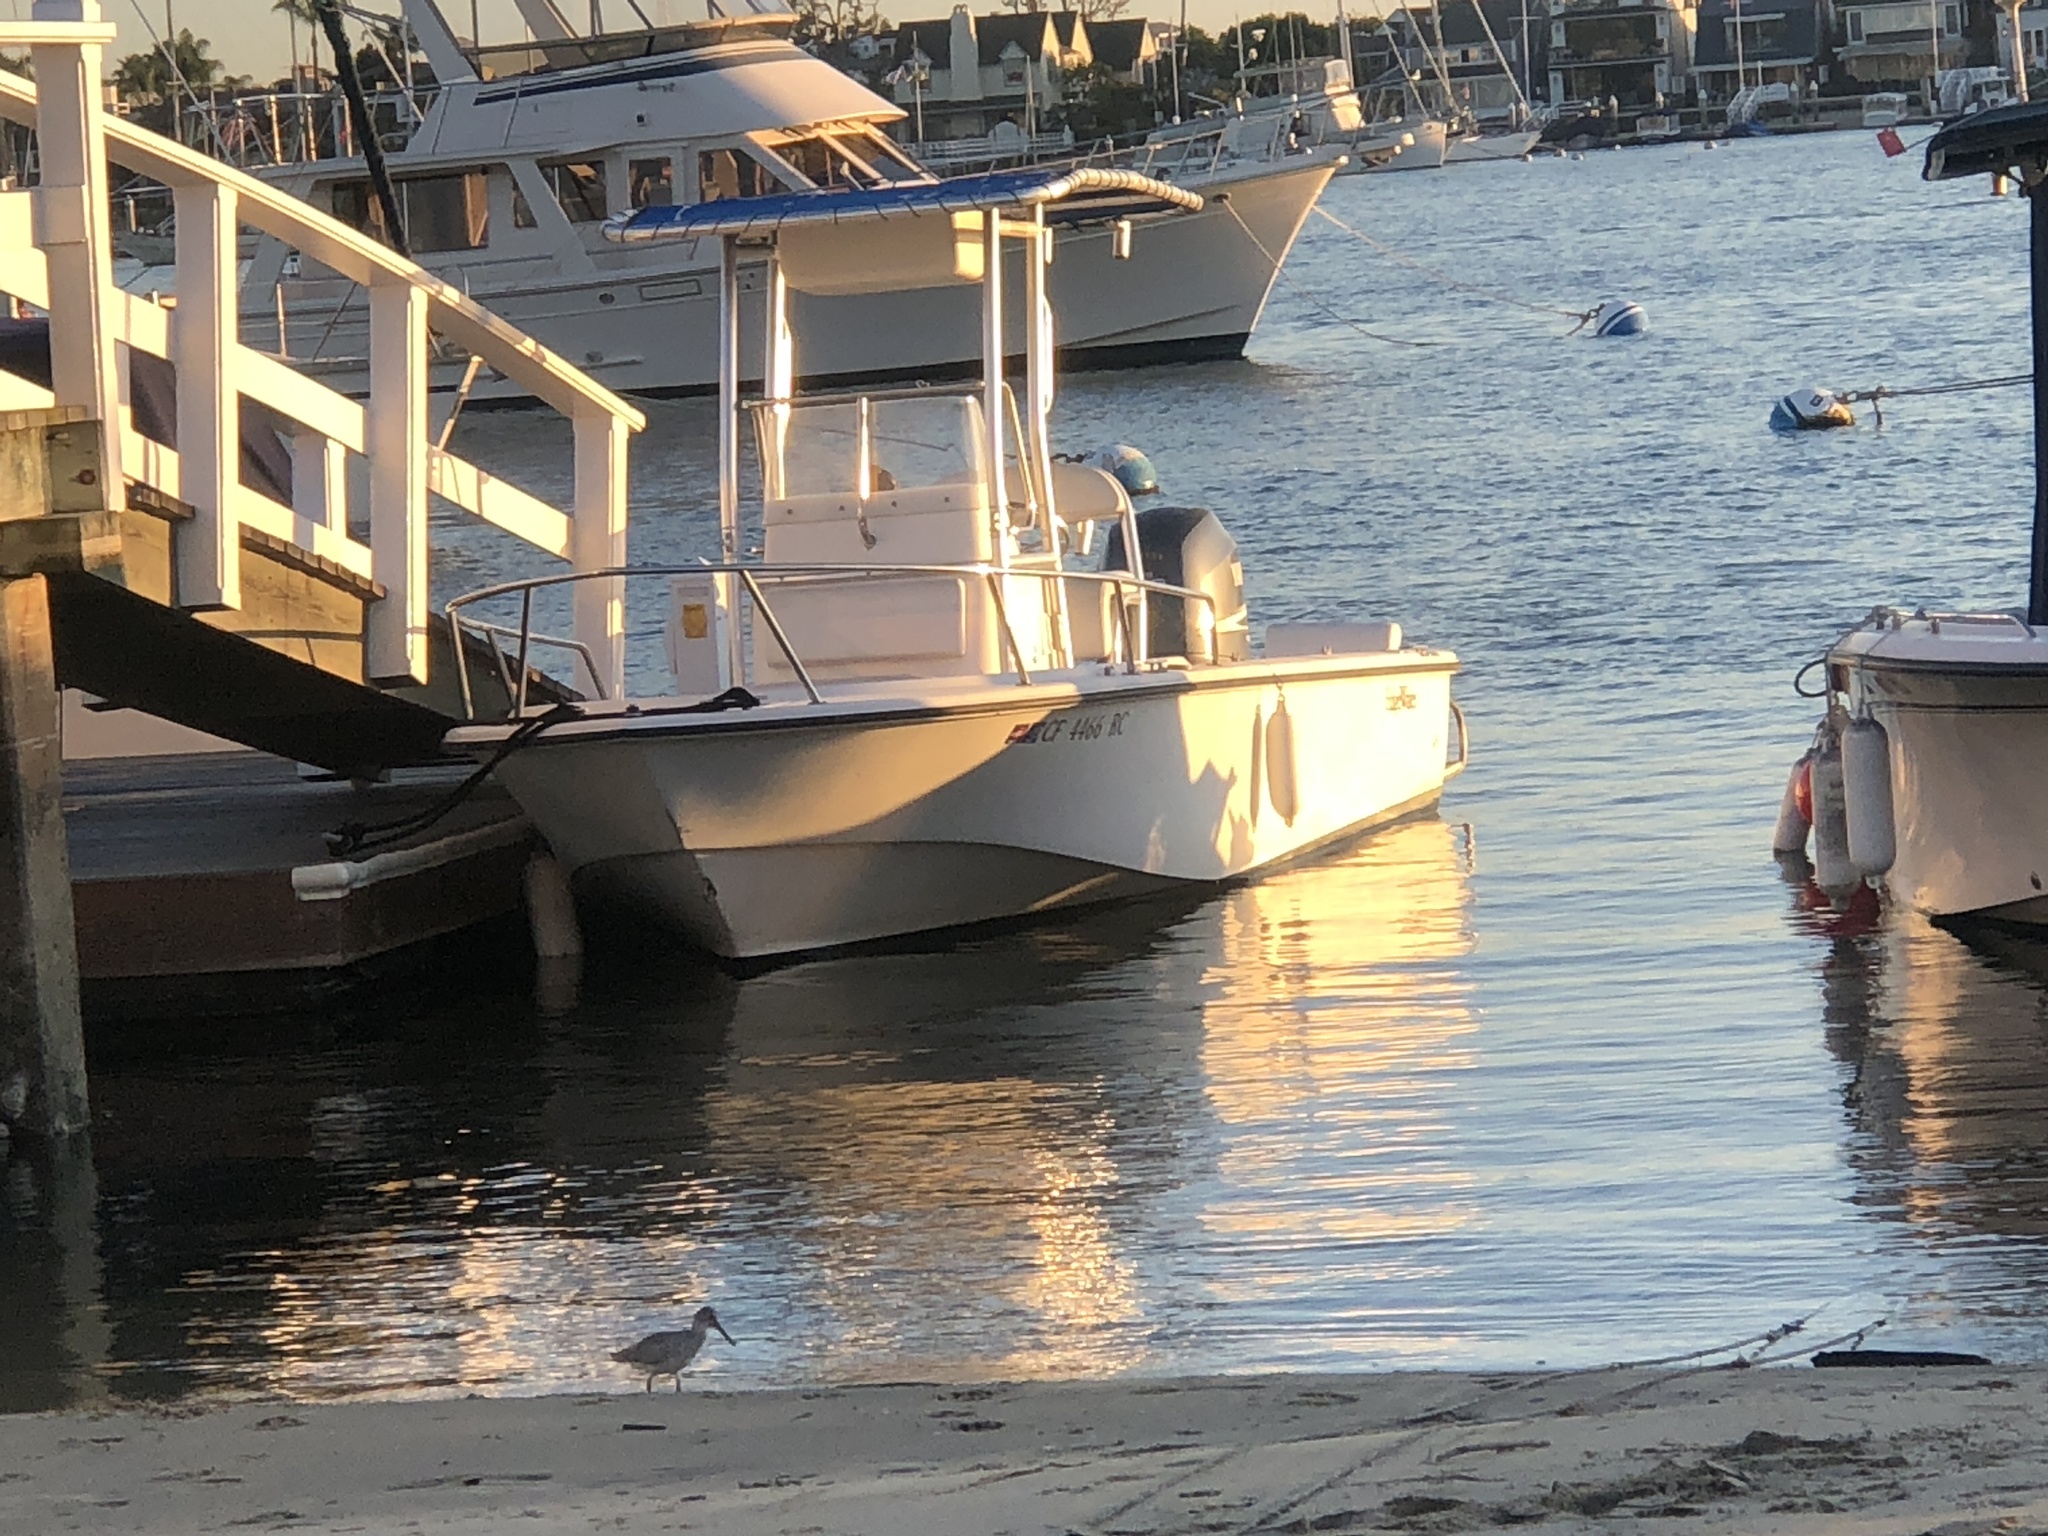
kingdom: Animalia
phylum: Chordata
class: Aves
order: Charadriiformes
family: Scolopacidae
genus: Tringa
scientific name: Tringa semipalmata
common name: Willet
